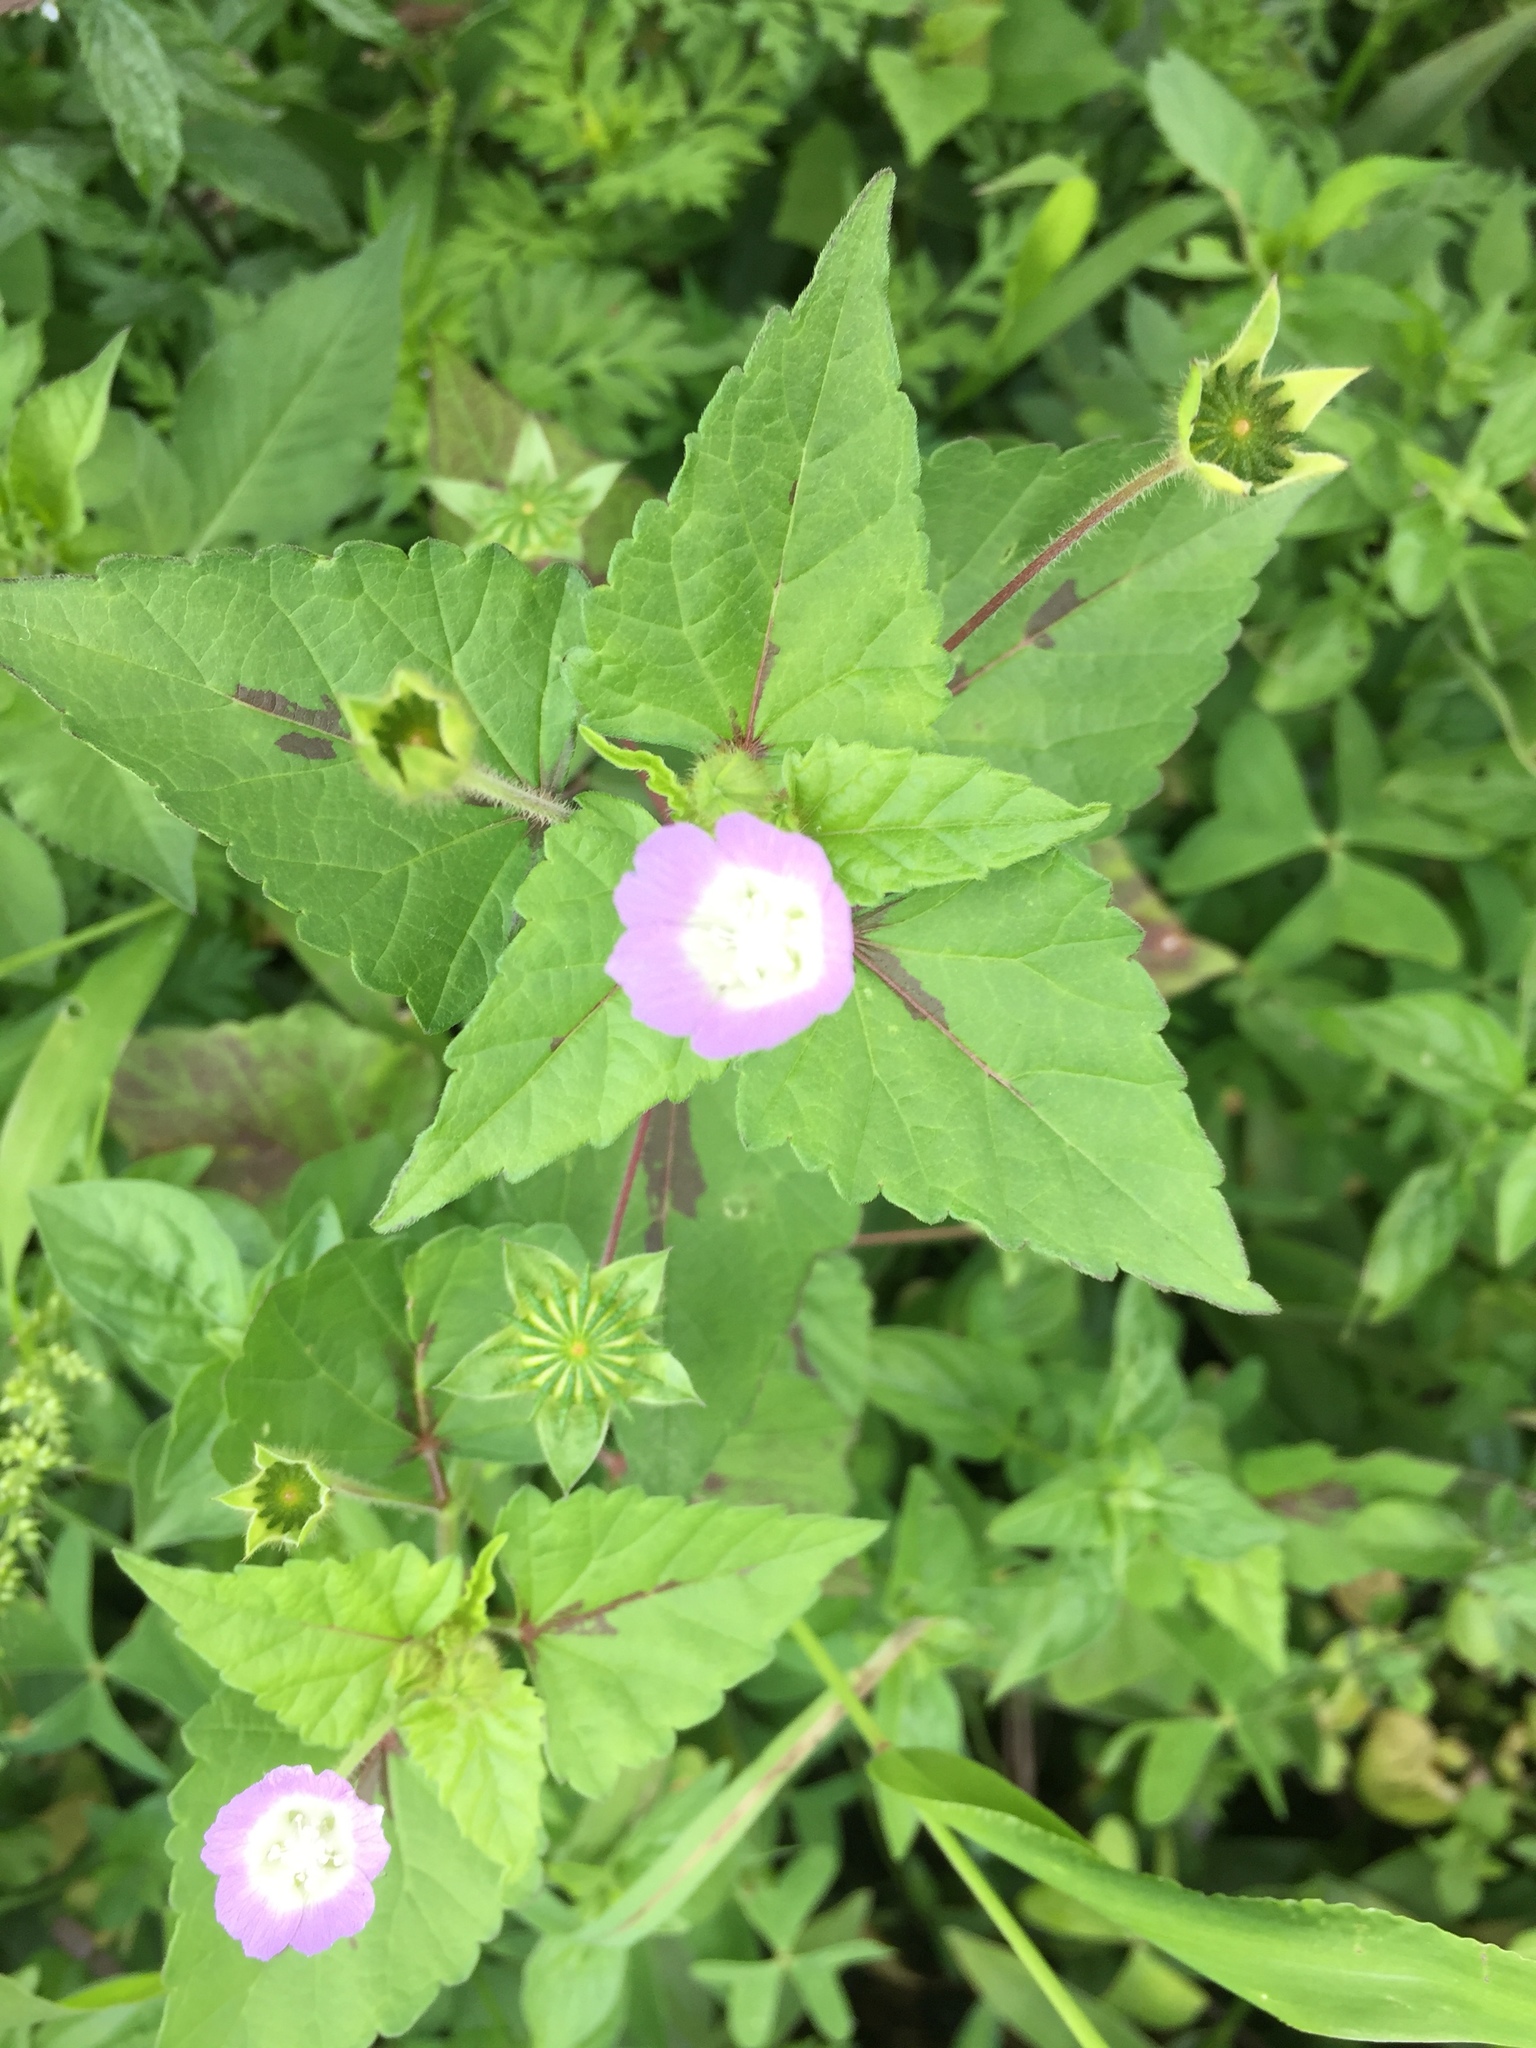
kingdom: Plantae
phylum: Tracheophyta
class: Magnoliopsida
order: Malvales
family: Malvaceae
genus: Anoda
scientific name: Anoda cristata
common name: Spurred anoda
